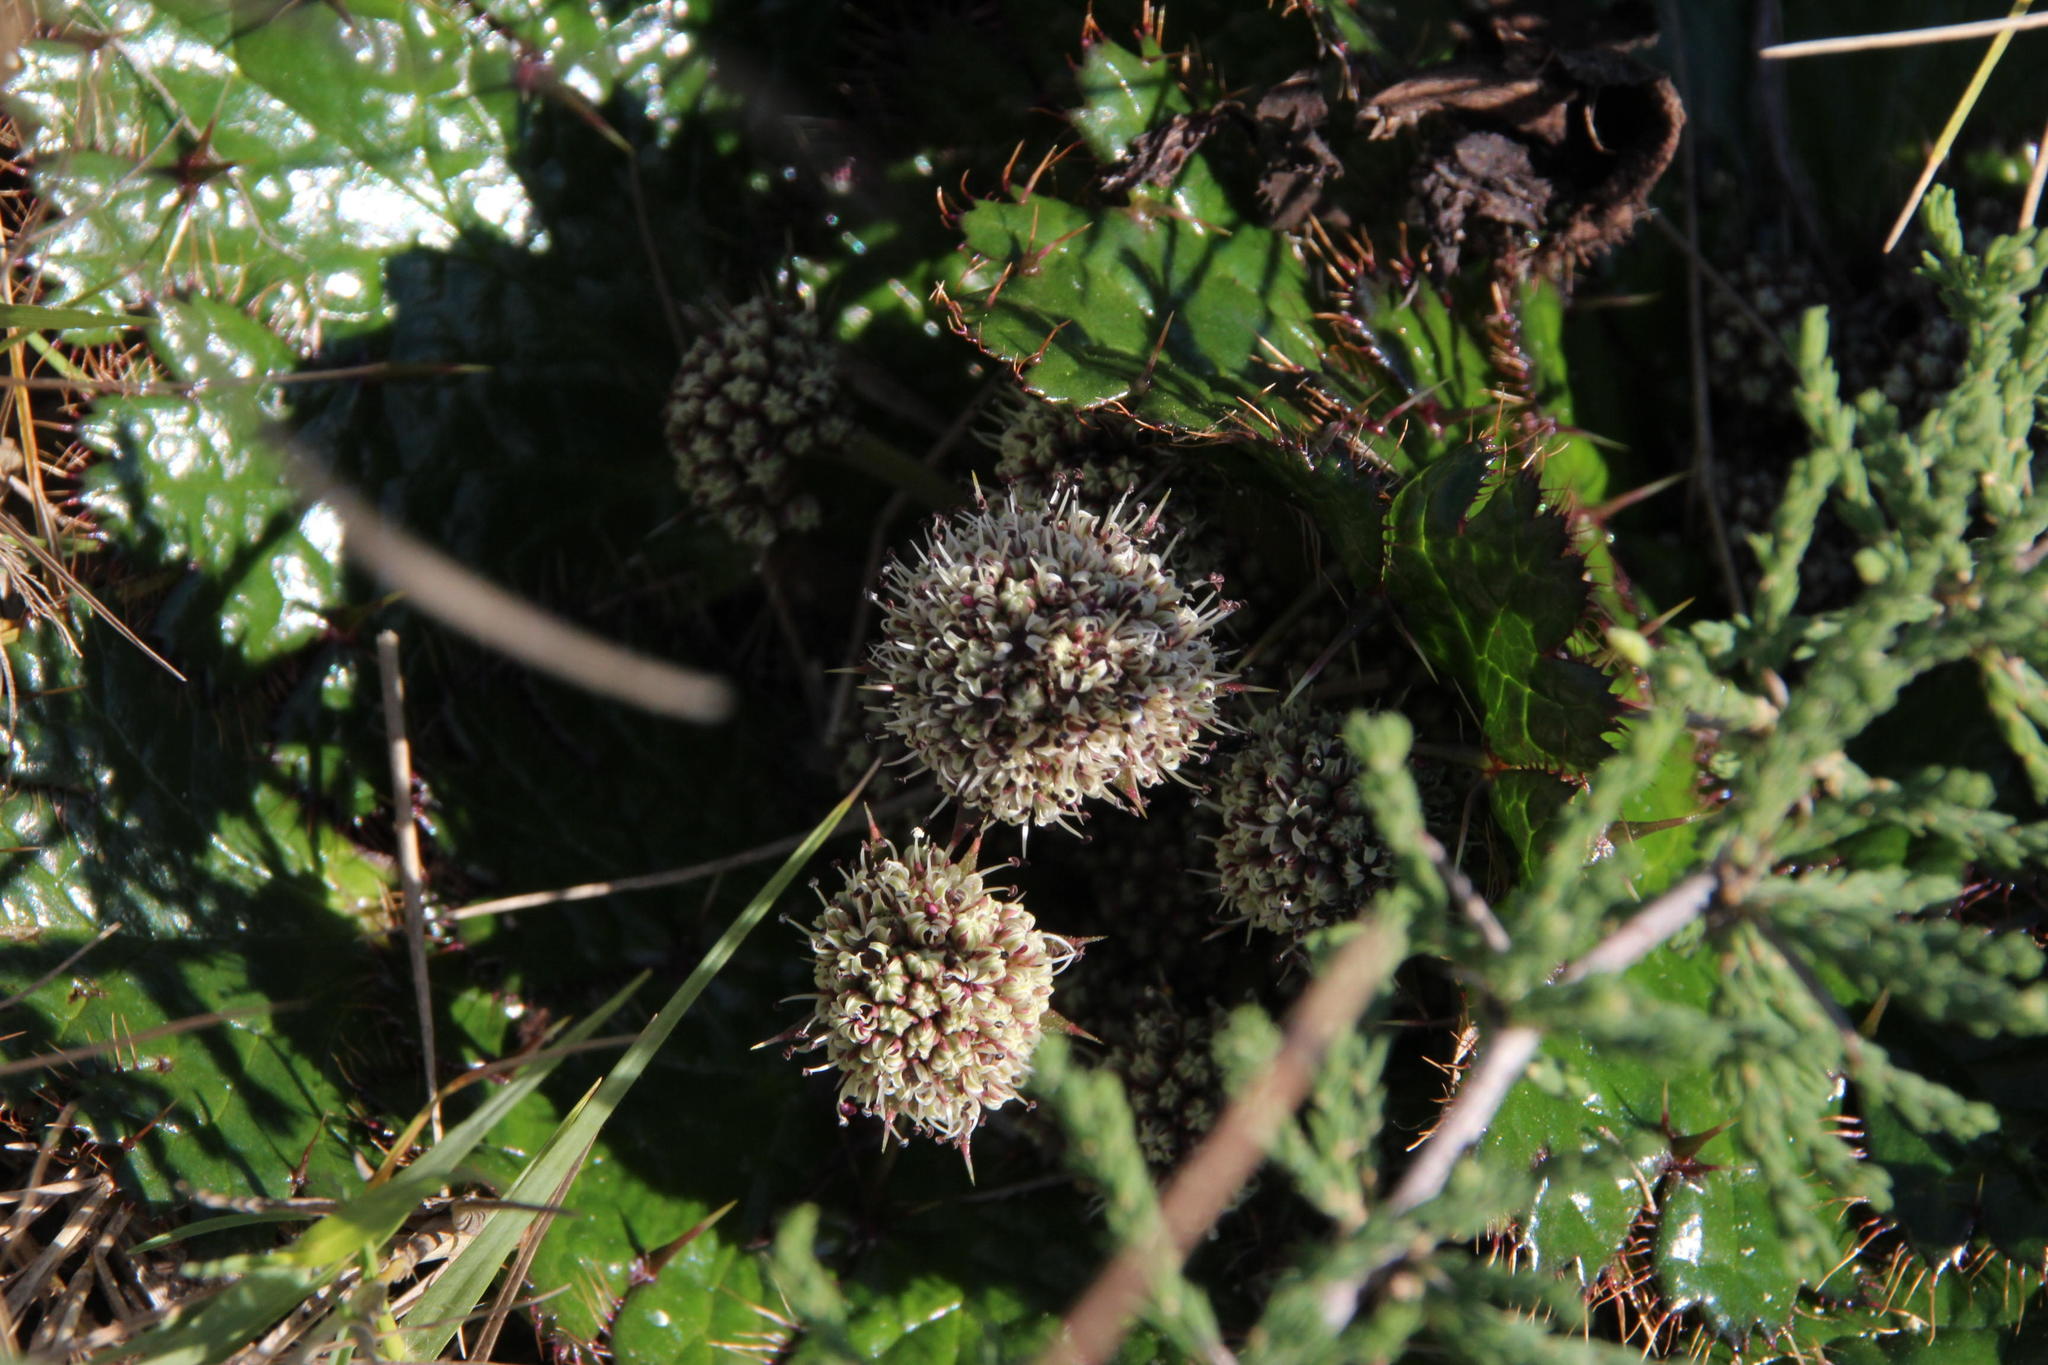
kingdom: Plantae
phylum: Tracheophyta
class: Magnoliopsida
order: Apiales
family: Apiaceae
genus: Arctopus
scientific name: Arctopus echinatus
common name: Platdoring
